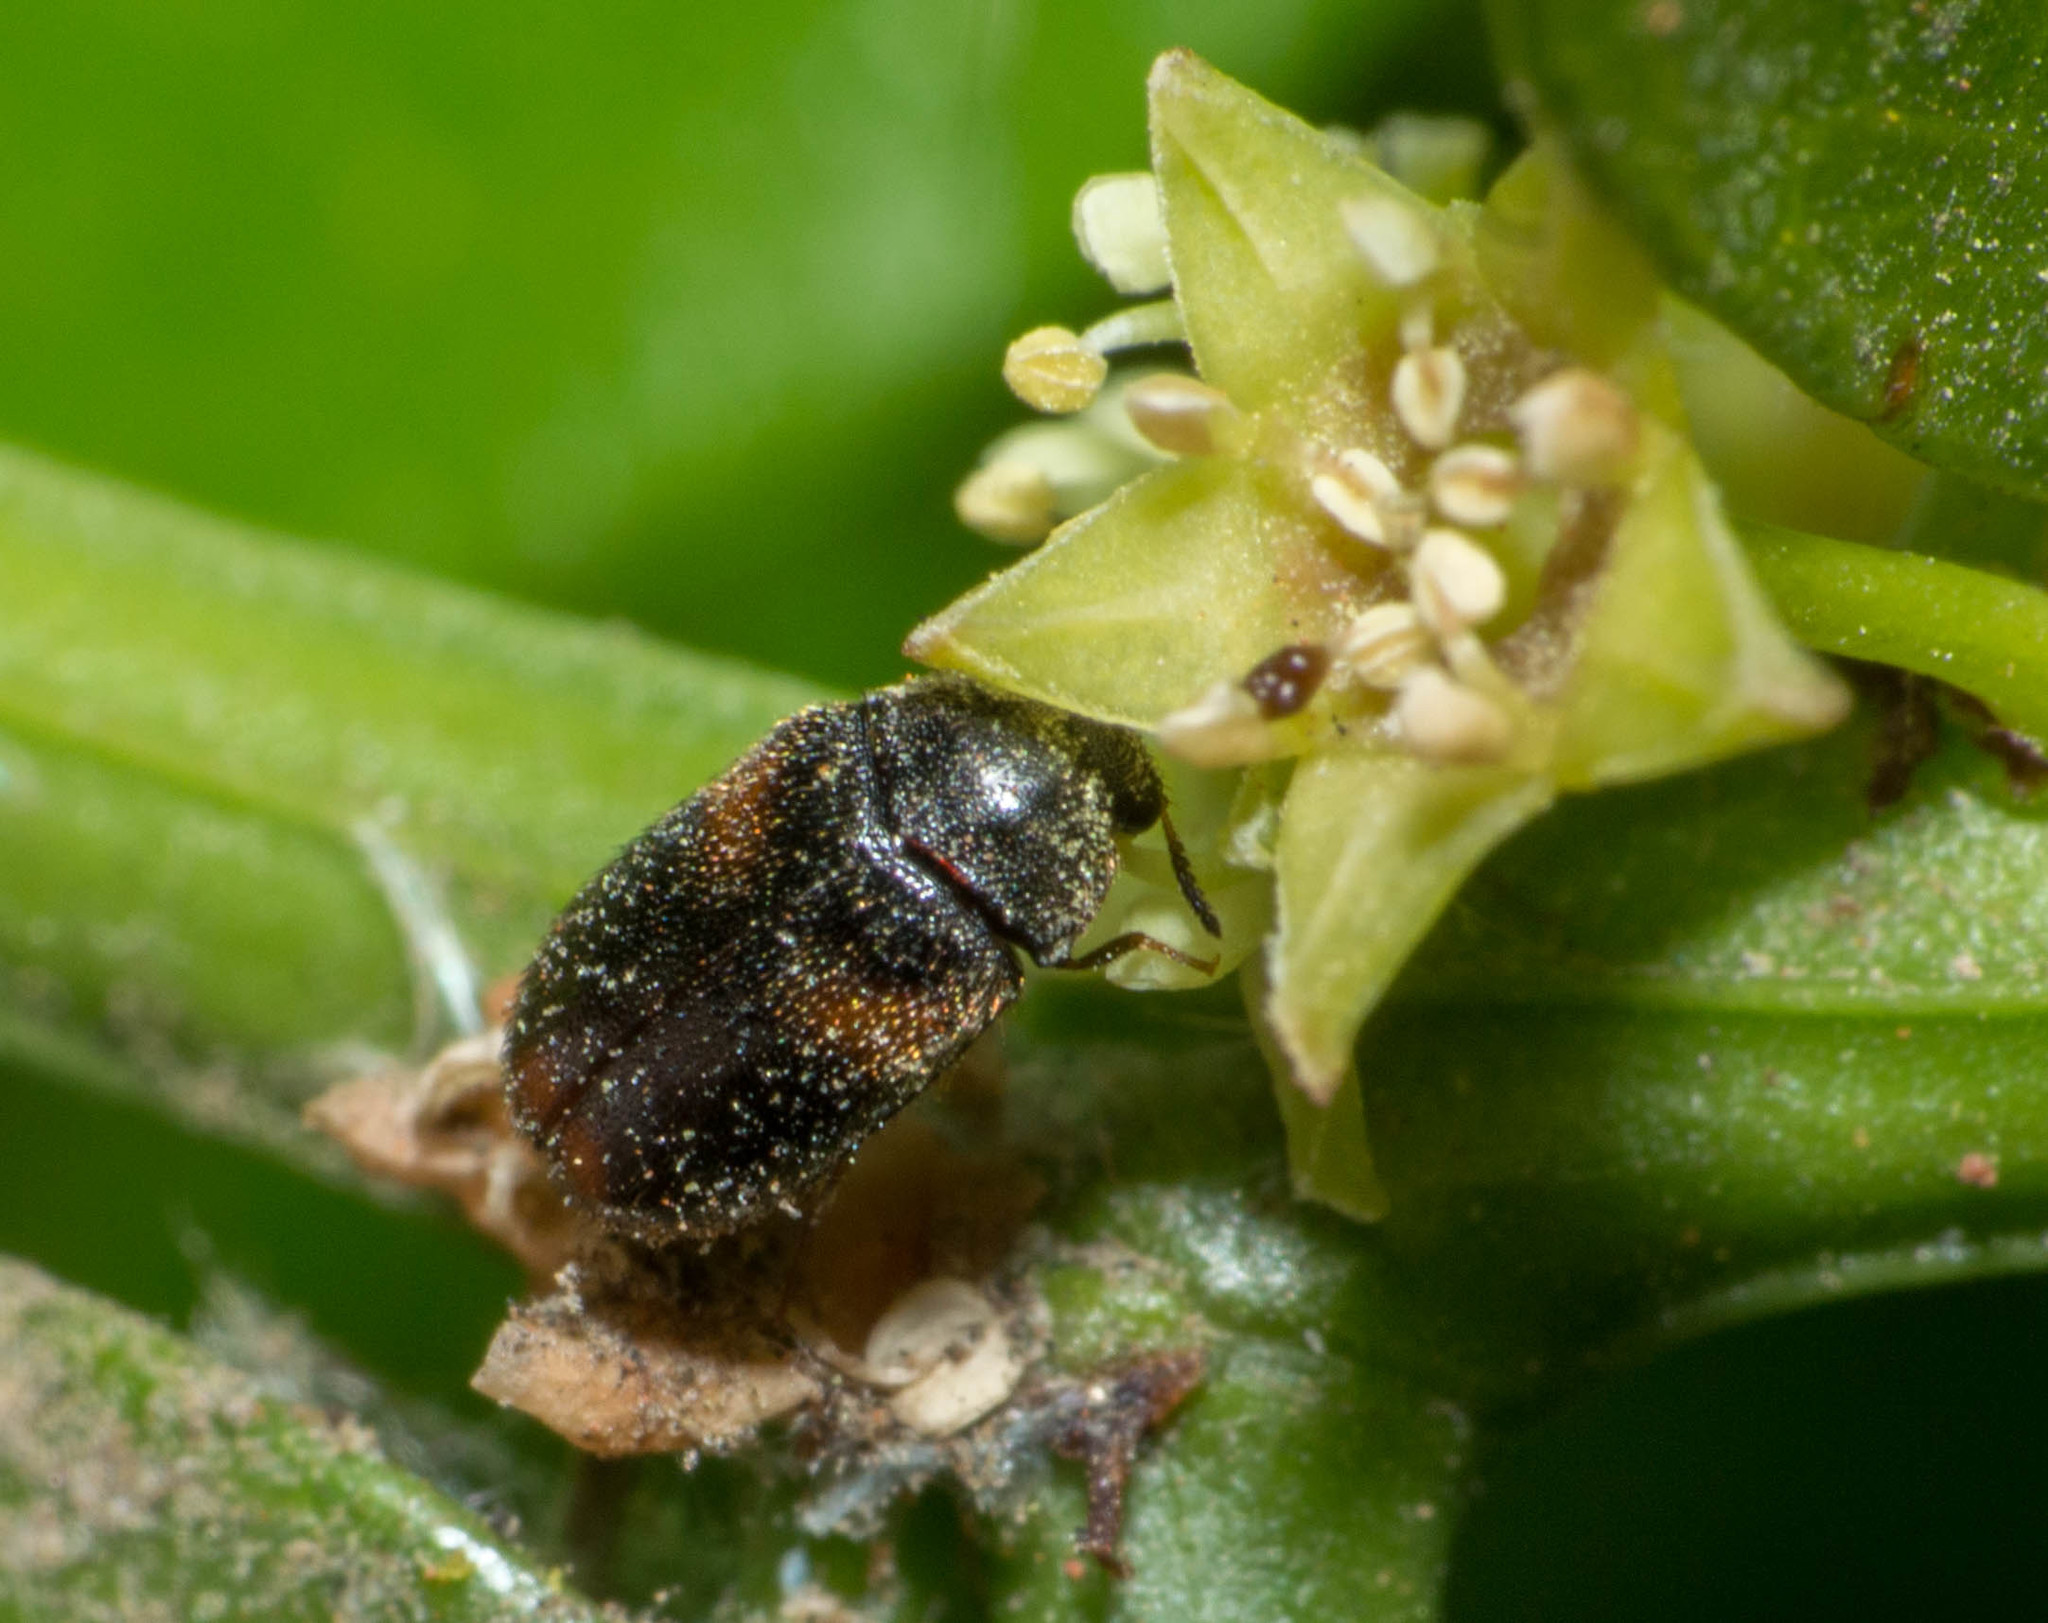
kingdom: Animalia
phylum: Arthropoda
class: Insecta
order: Coleoptera
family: Dermestidae
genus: Trogoderma
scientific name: Trogoderma
